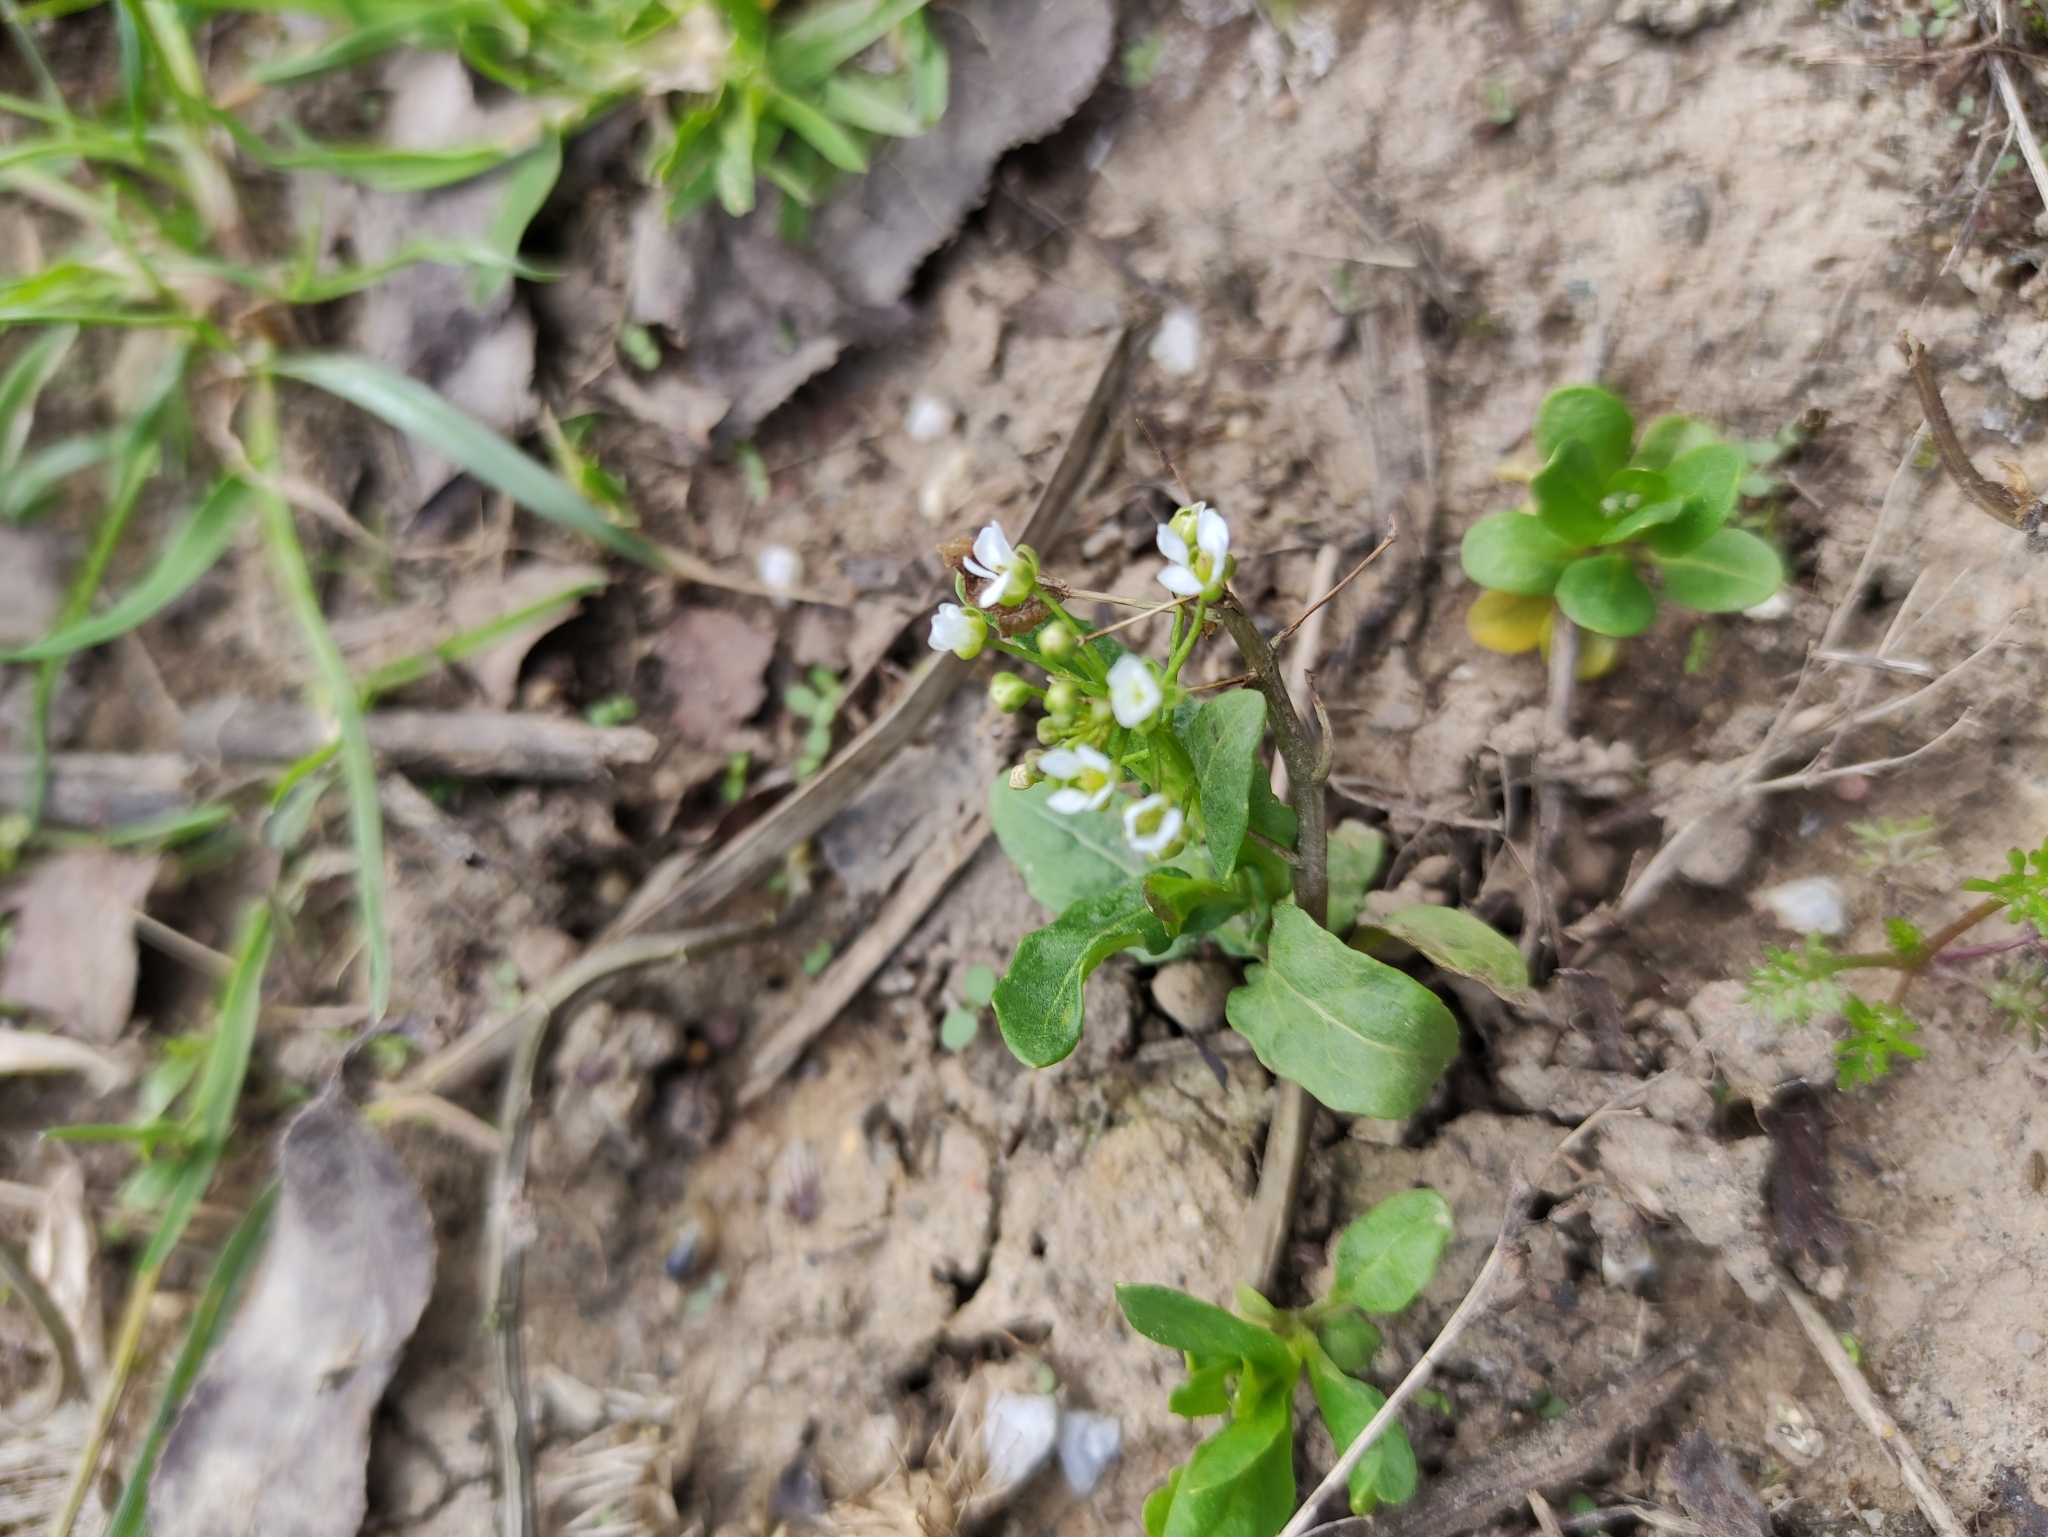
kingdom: Plantae
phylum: Tracheophyta
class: Magnoliopsida
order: Brassicales
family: Brassicaceae
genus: Thlaspi
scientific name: Thlaspi arvense
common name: Field pennycress
